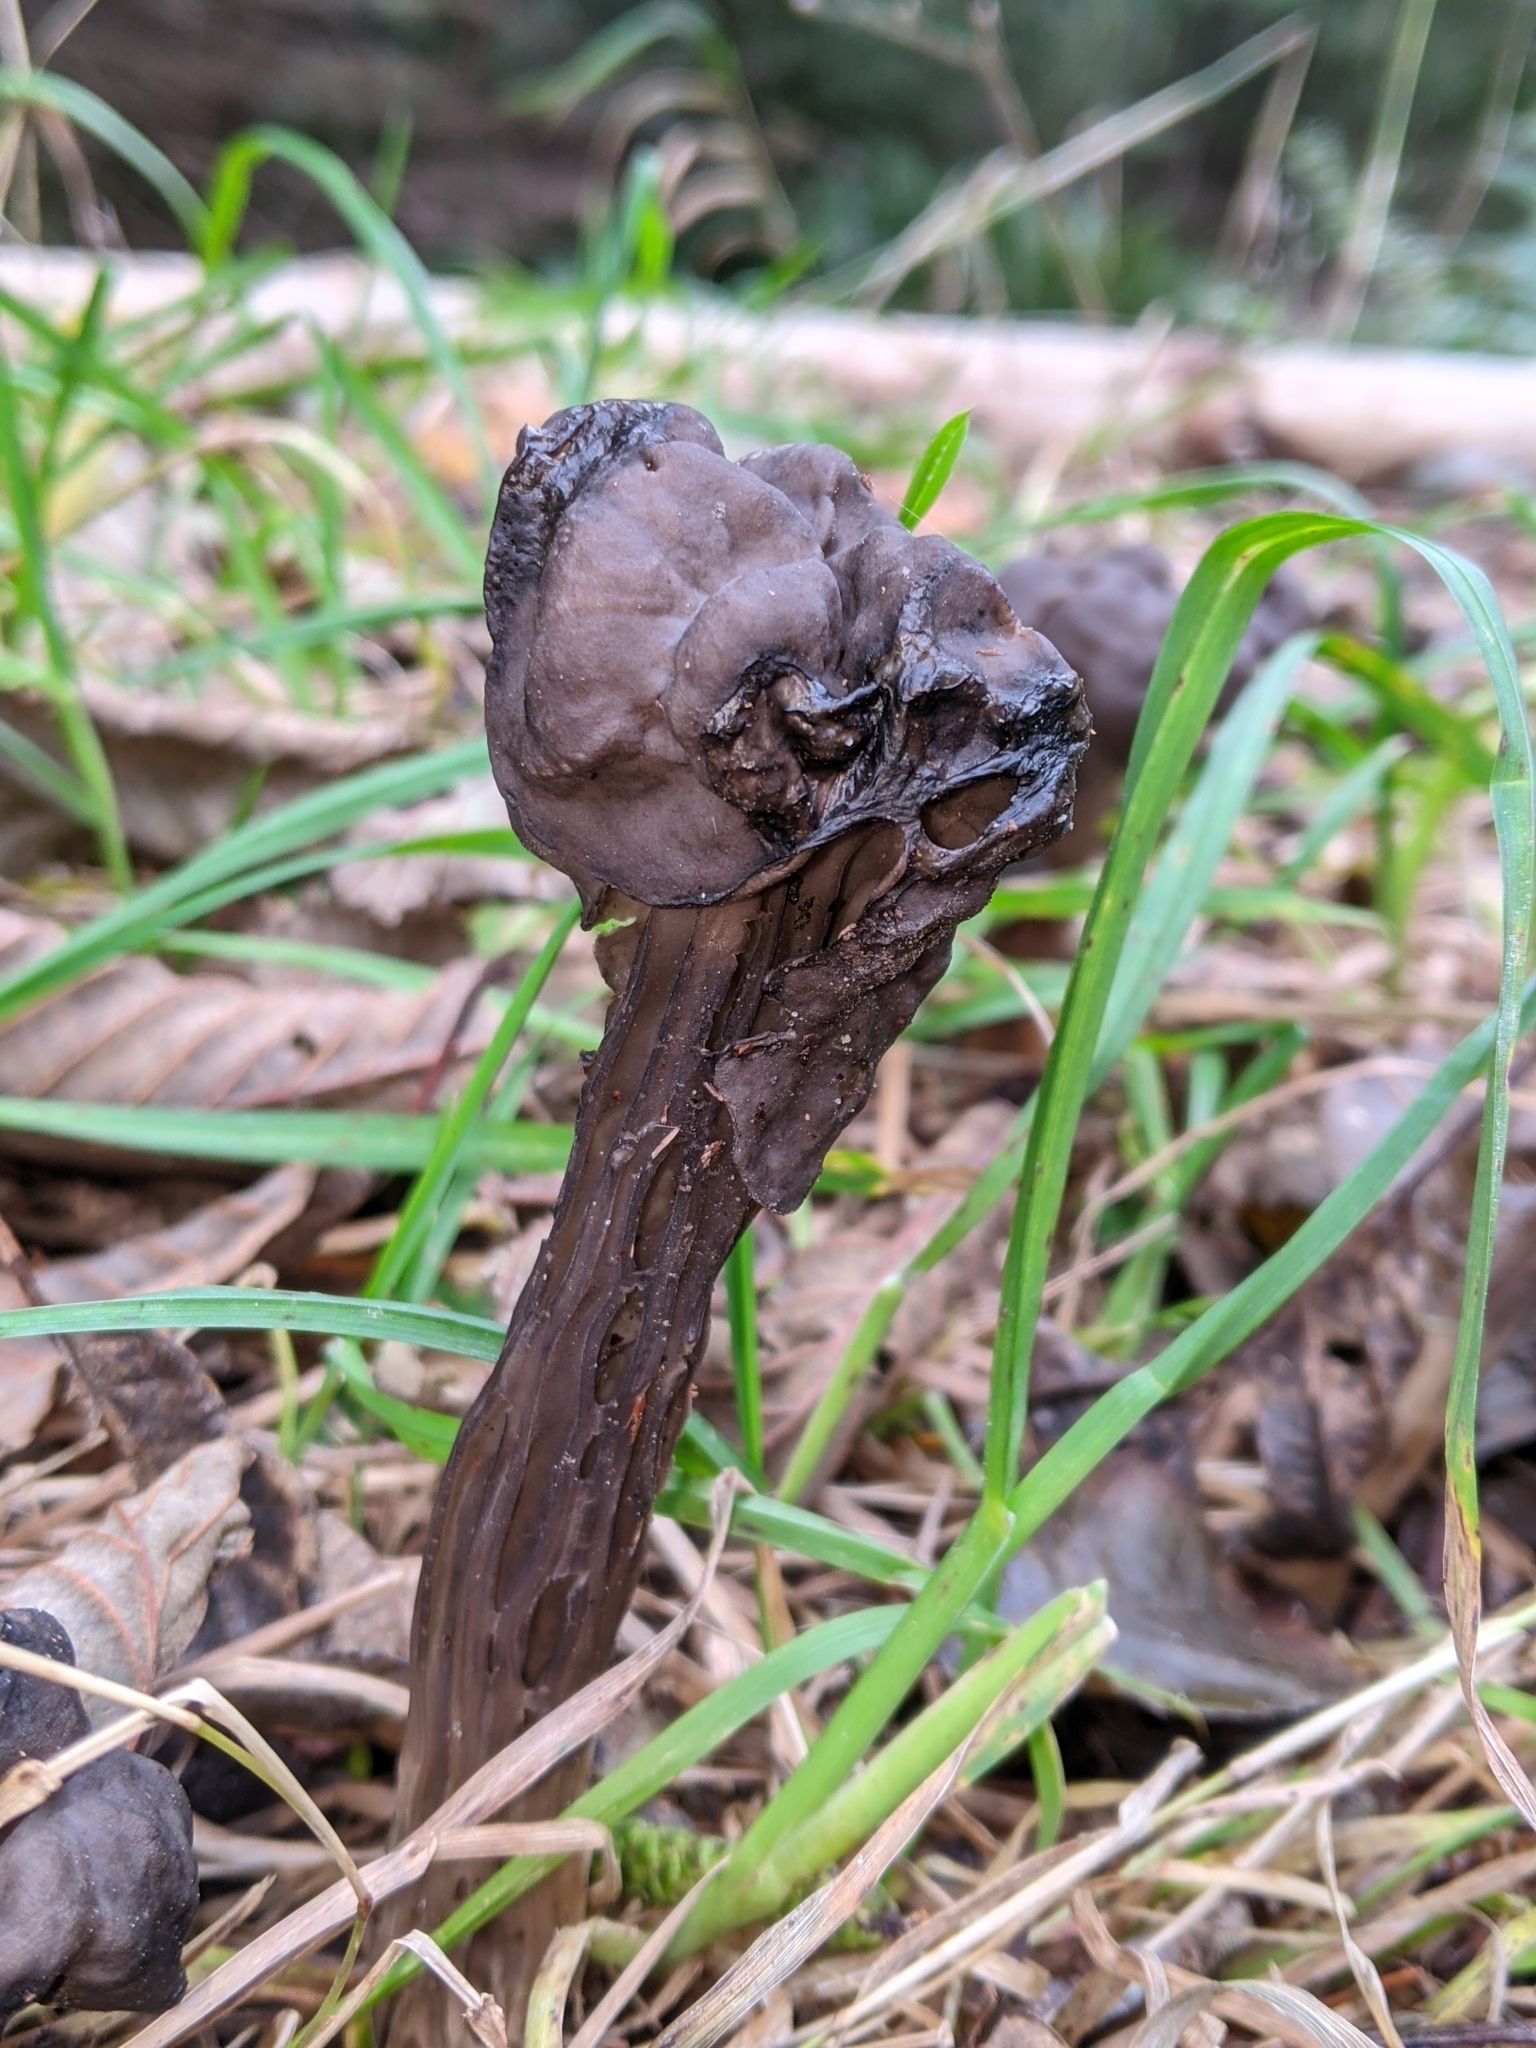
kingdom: Fungi
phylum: Ascomycota
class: Pezizomycetes
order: Pezizales
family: Helvellaceae
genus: Helvella
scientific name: Helvella vespertina
